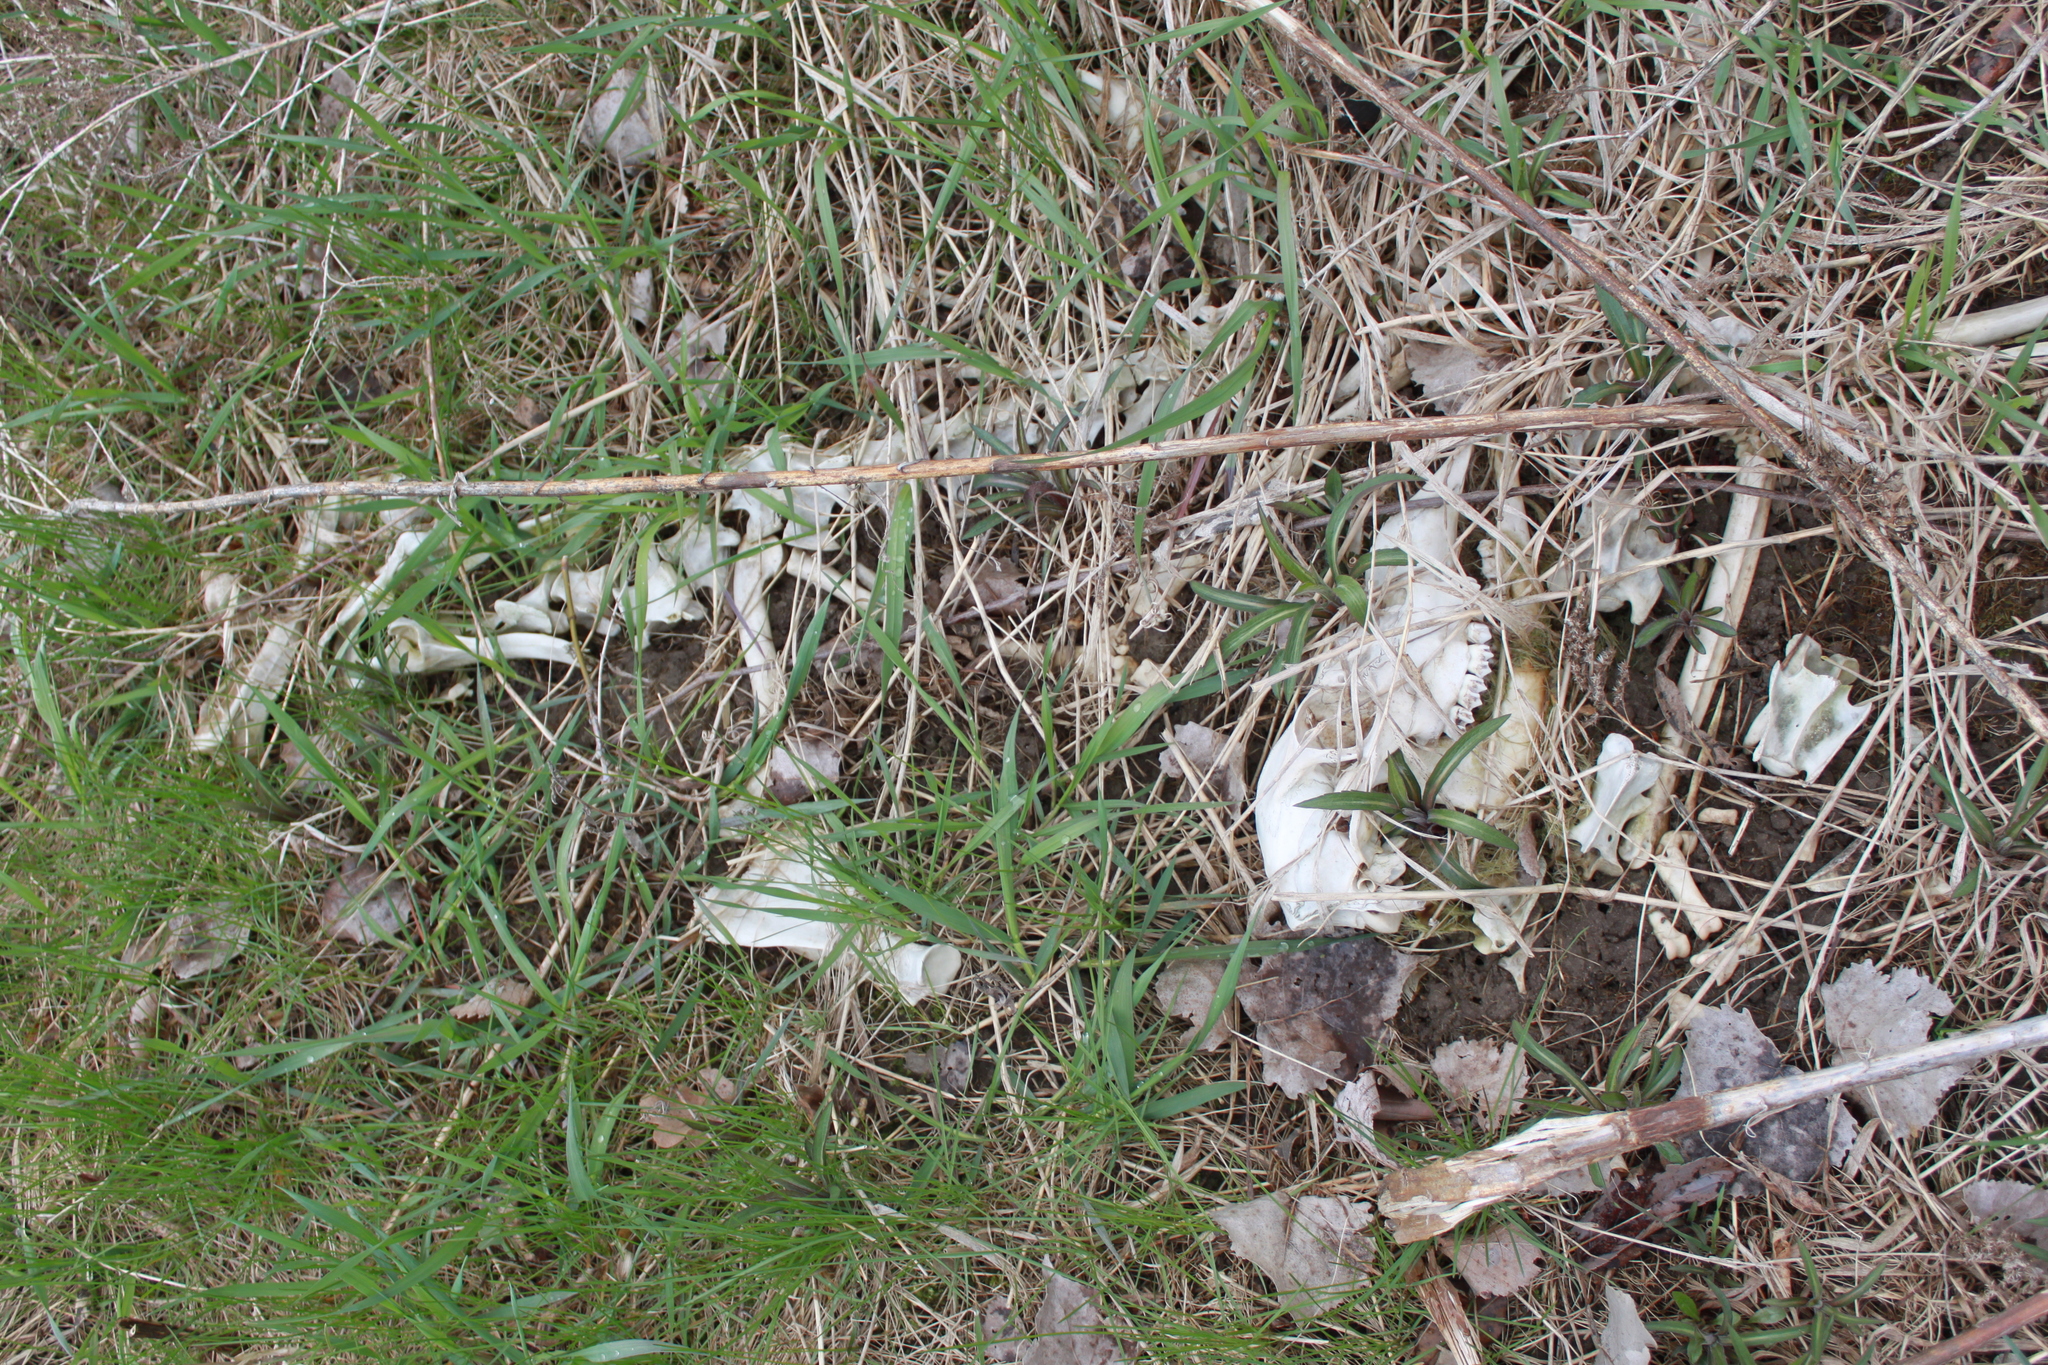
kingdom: Animalia
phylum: Chordata
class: Mammalia
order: Artiodactyla
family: Cervidae
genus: Odocoileus
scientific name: Odocoileus virginianus
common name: White-tailed deer
